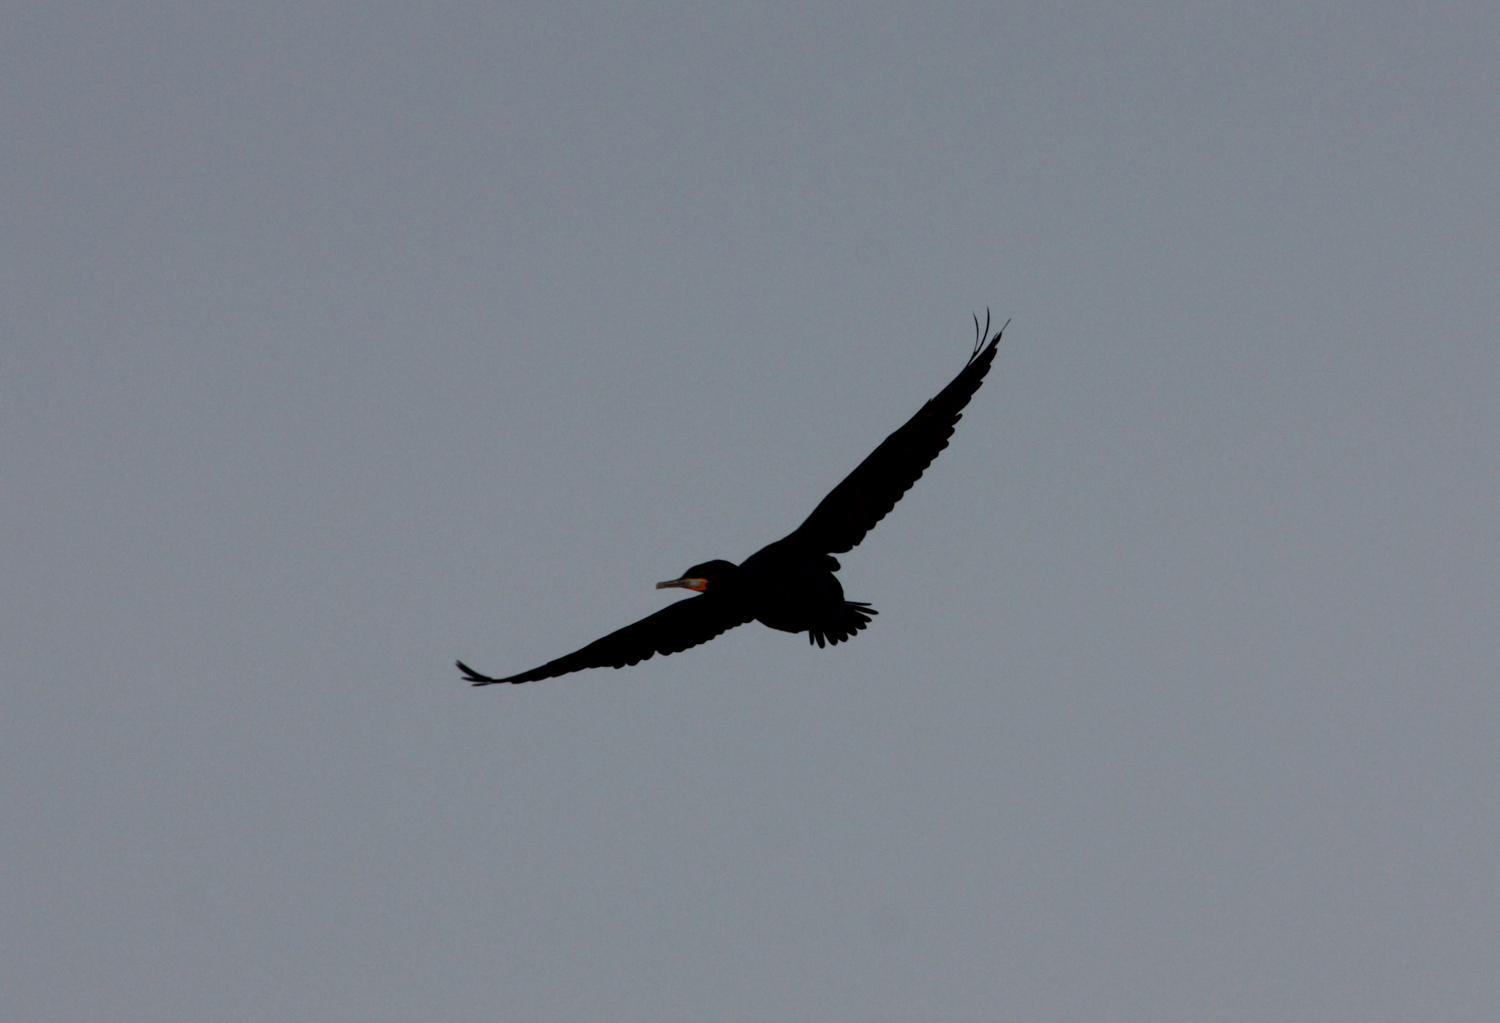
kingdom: Animalia
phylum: Chordata
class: Aves
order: Suliformes
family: Phalacrocoracidae
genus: Phalacrocorax
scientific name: Phalacrocorax capensis
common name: Cape cormorant
